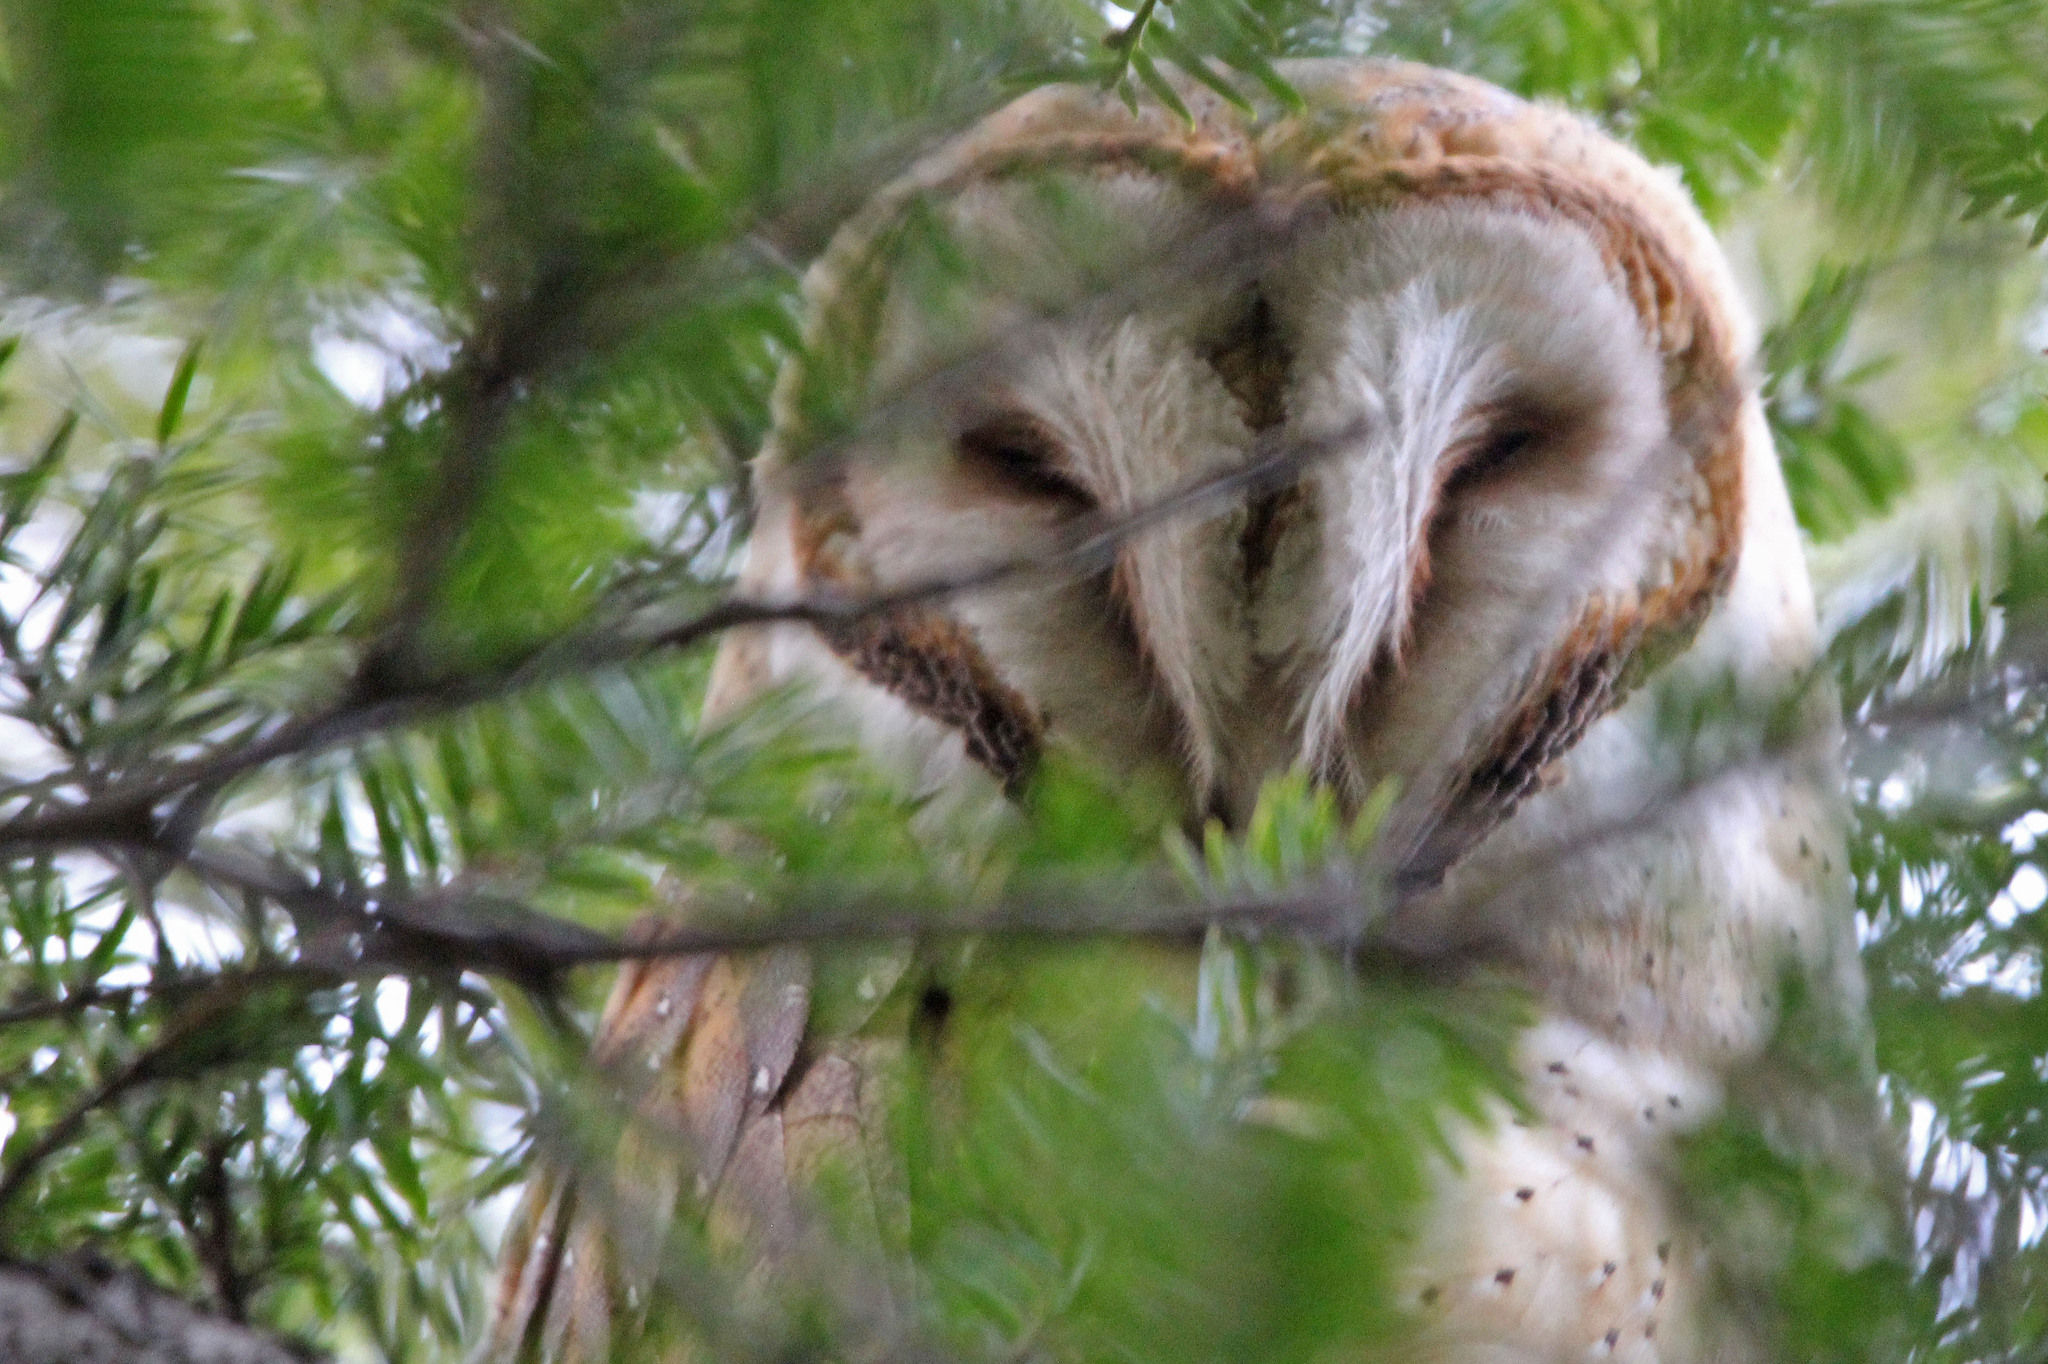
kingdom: Animalia
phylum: Chordata
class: Aves
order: Strigiformes
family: Tytonidae
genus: Tyto
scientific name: Tyto alba
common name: Barn owl
